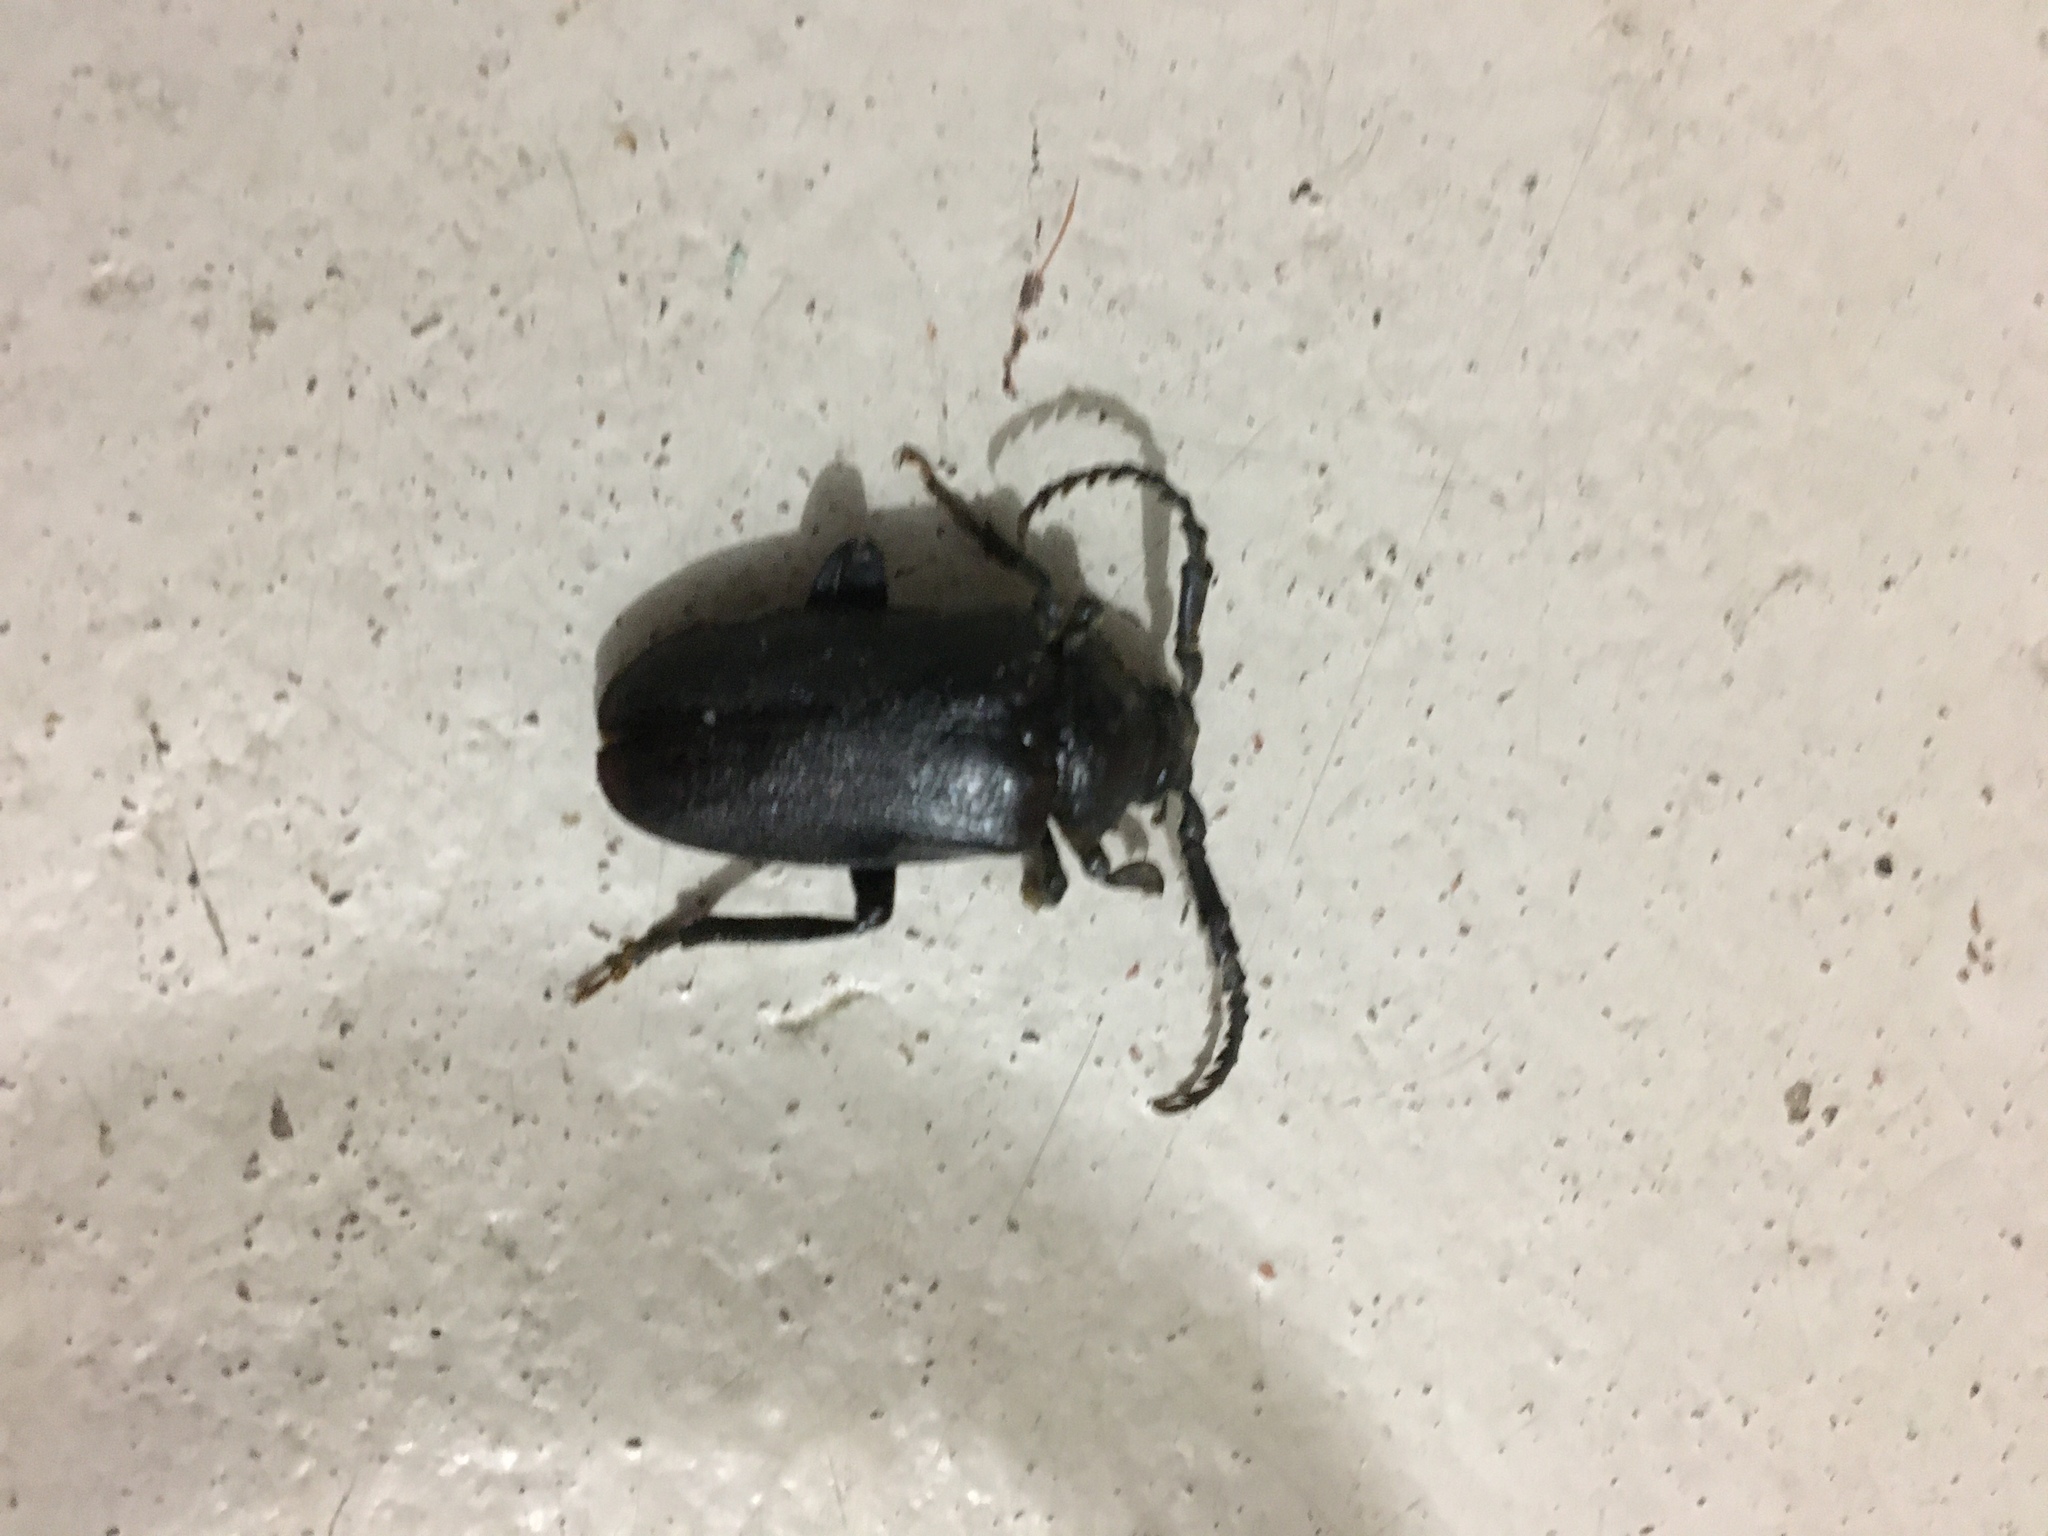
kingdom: Animalia
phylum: Arthropoda
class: Insecta
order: Coleoptera
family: Cerambycidae
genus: Prionus
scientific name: Prionus laticollis
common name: Broad necked prionus
